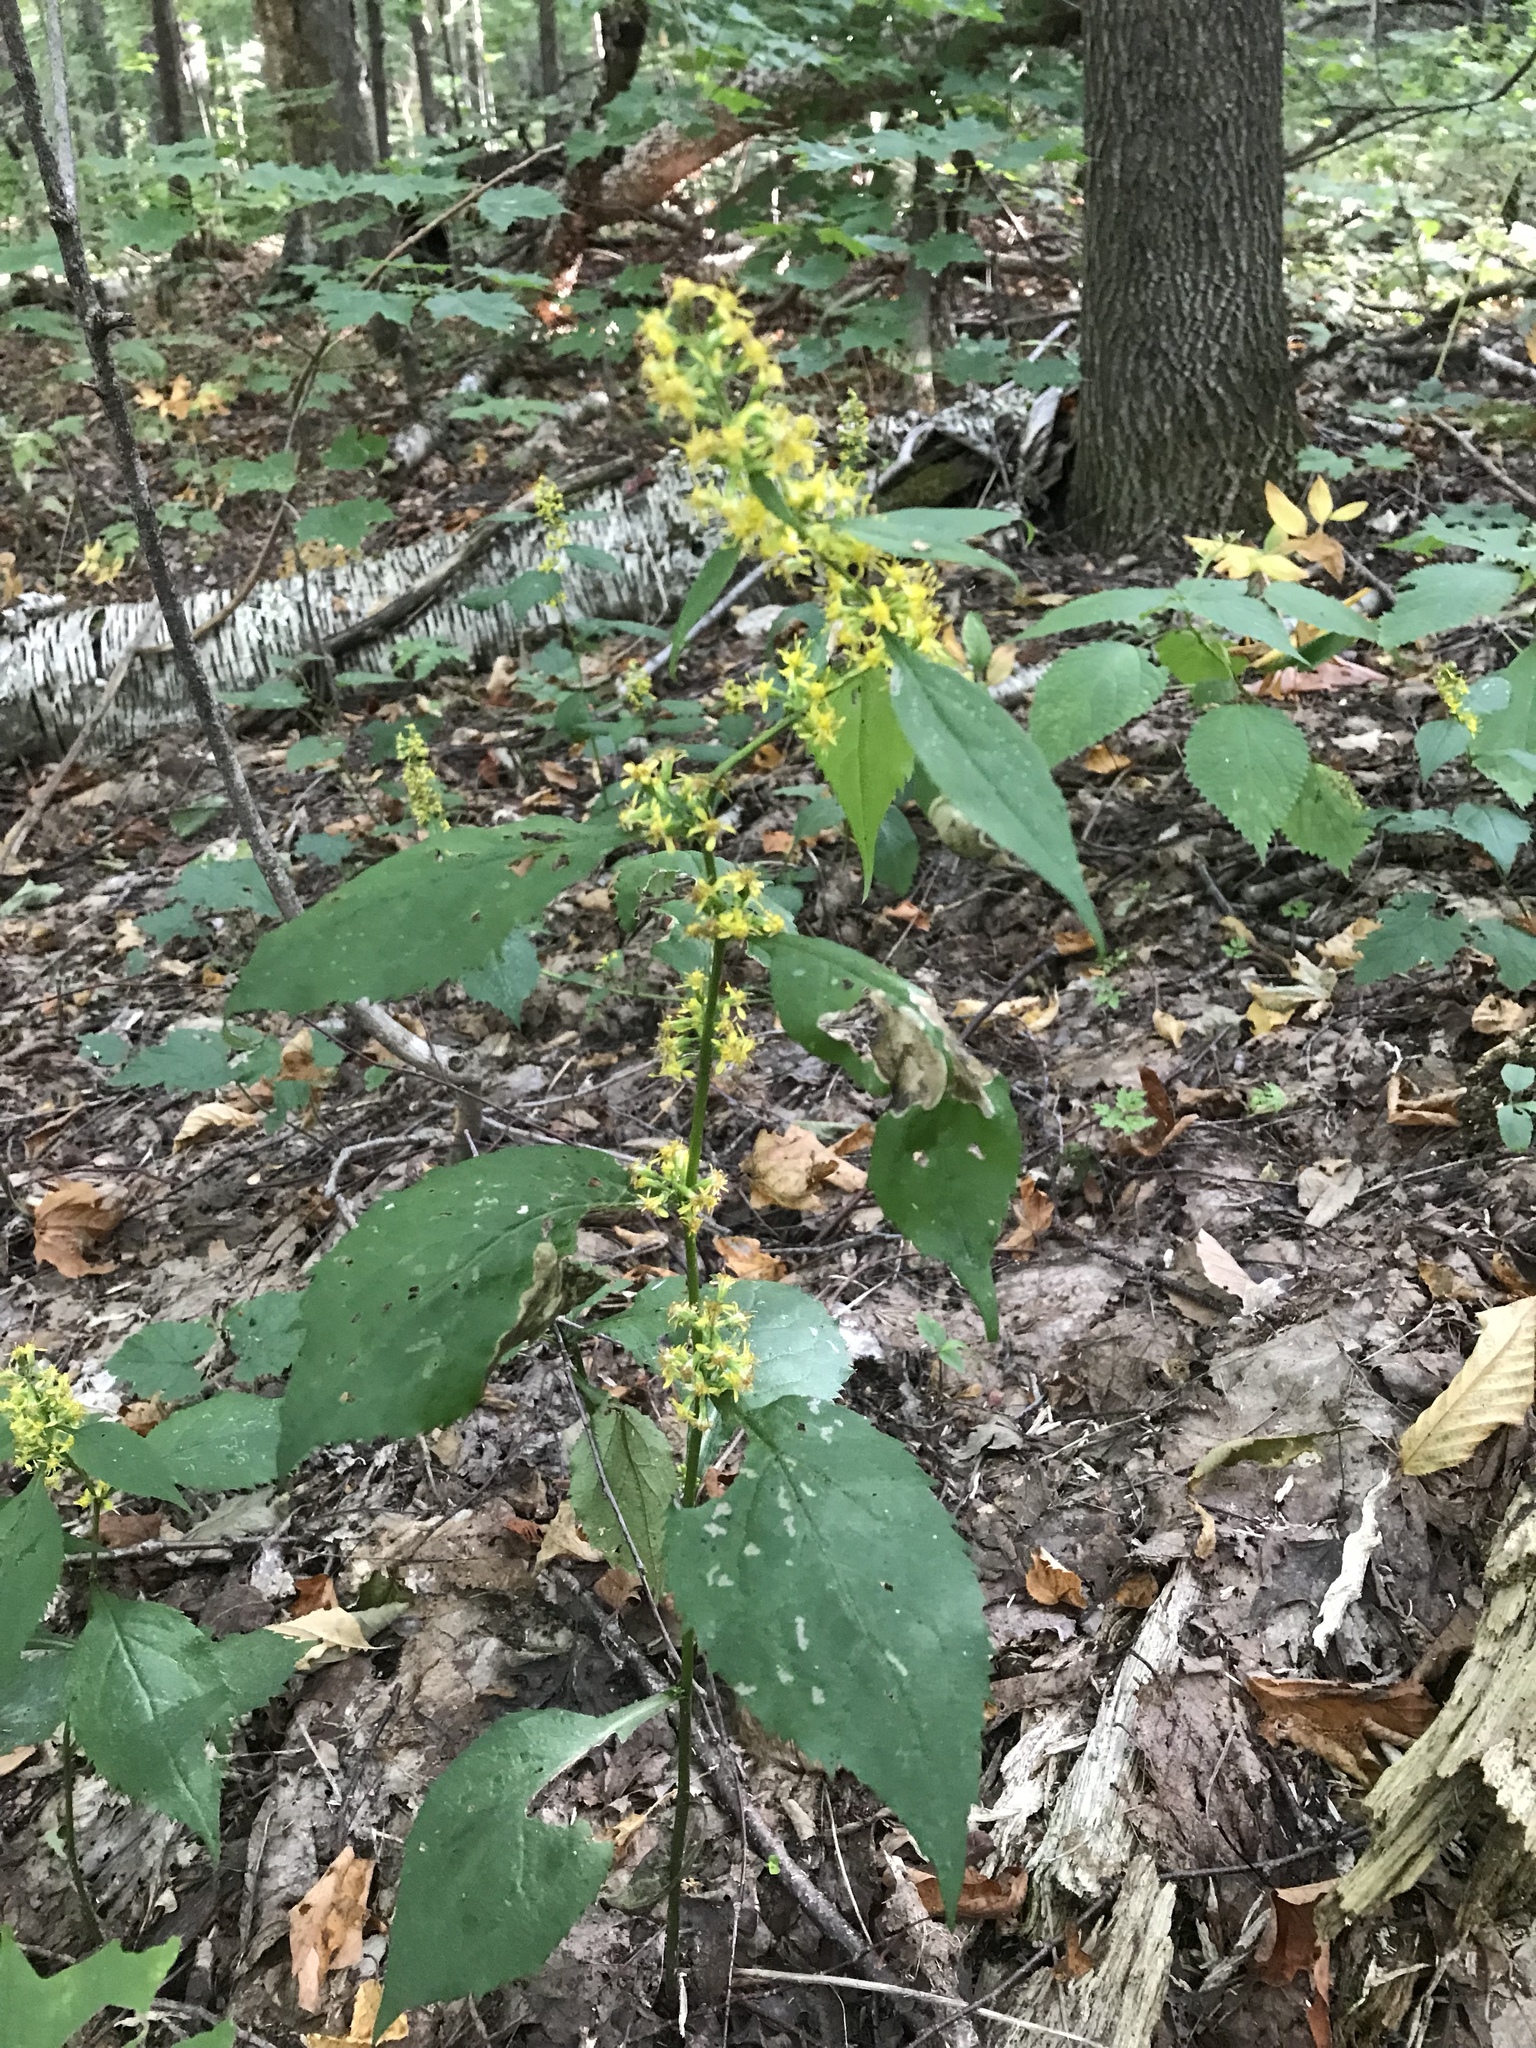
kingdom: Plantae
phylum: Tracheophyta
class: Magnoliopsida
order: Asterales
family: Asteraceae
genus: Solidago
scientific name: Solidago flexicaulis
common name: Zig-zag goldenrod
